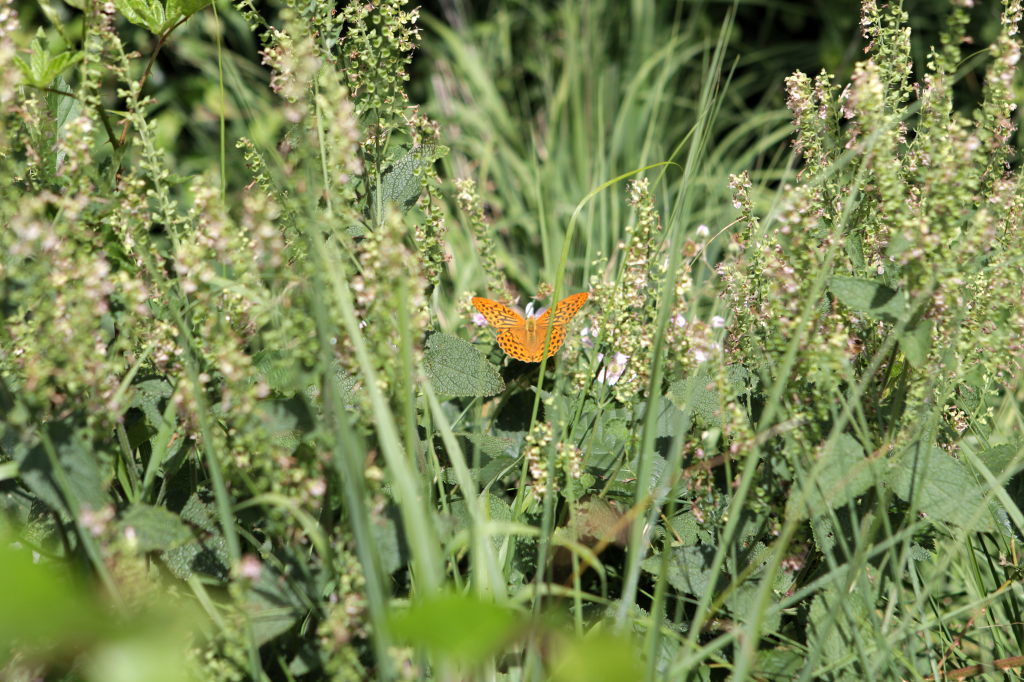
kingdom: Animalia
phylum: Arthropoda
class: Insecta
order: Lepidoptera
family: Nymphalidae
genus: Argynnis
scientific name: Argynnis paphia
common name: Silver-washed fritillary
